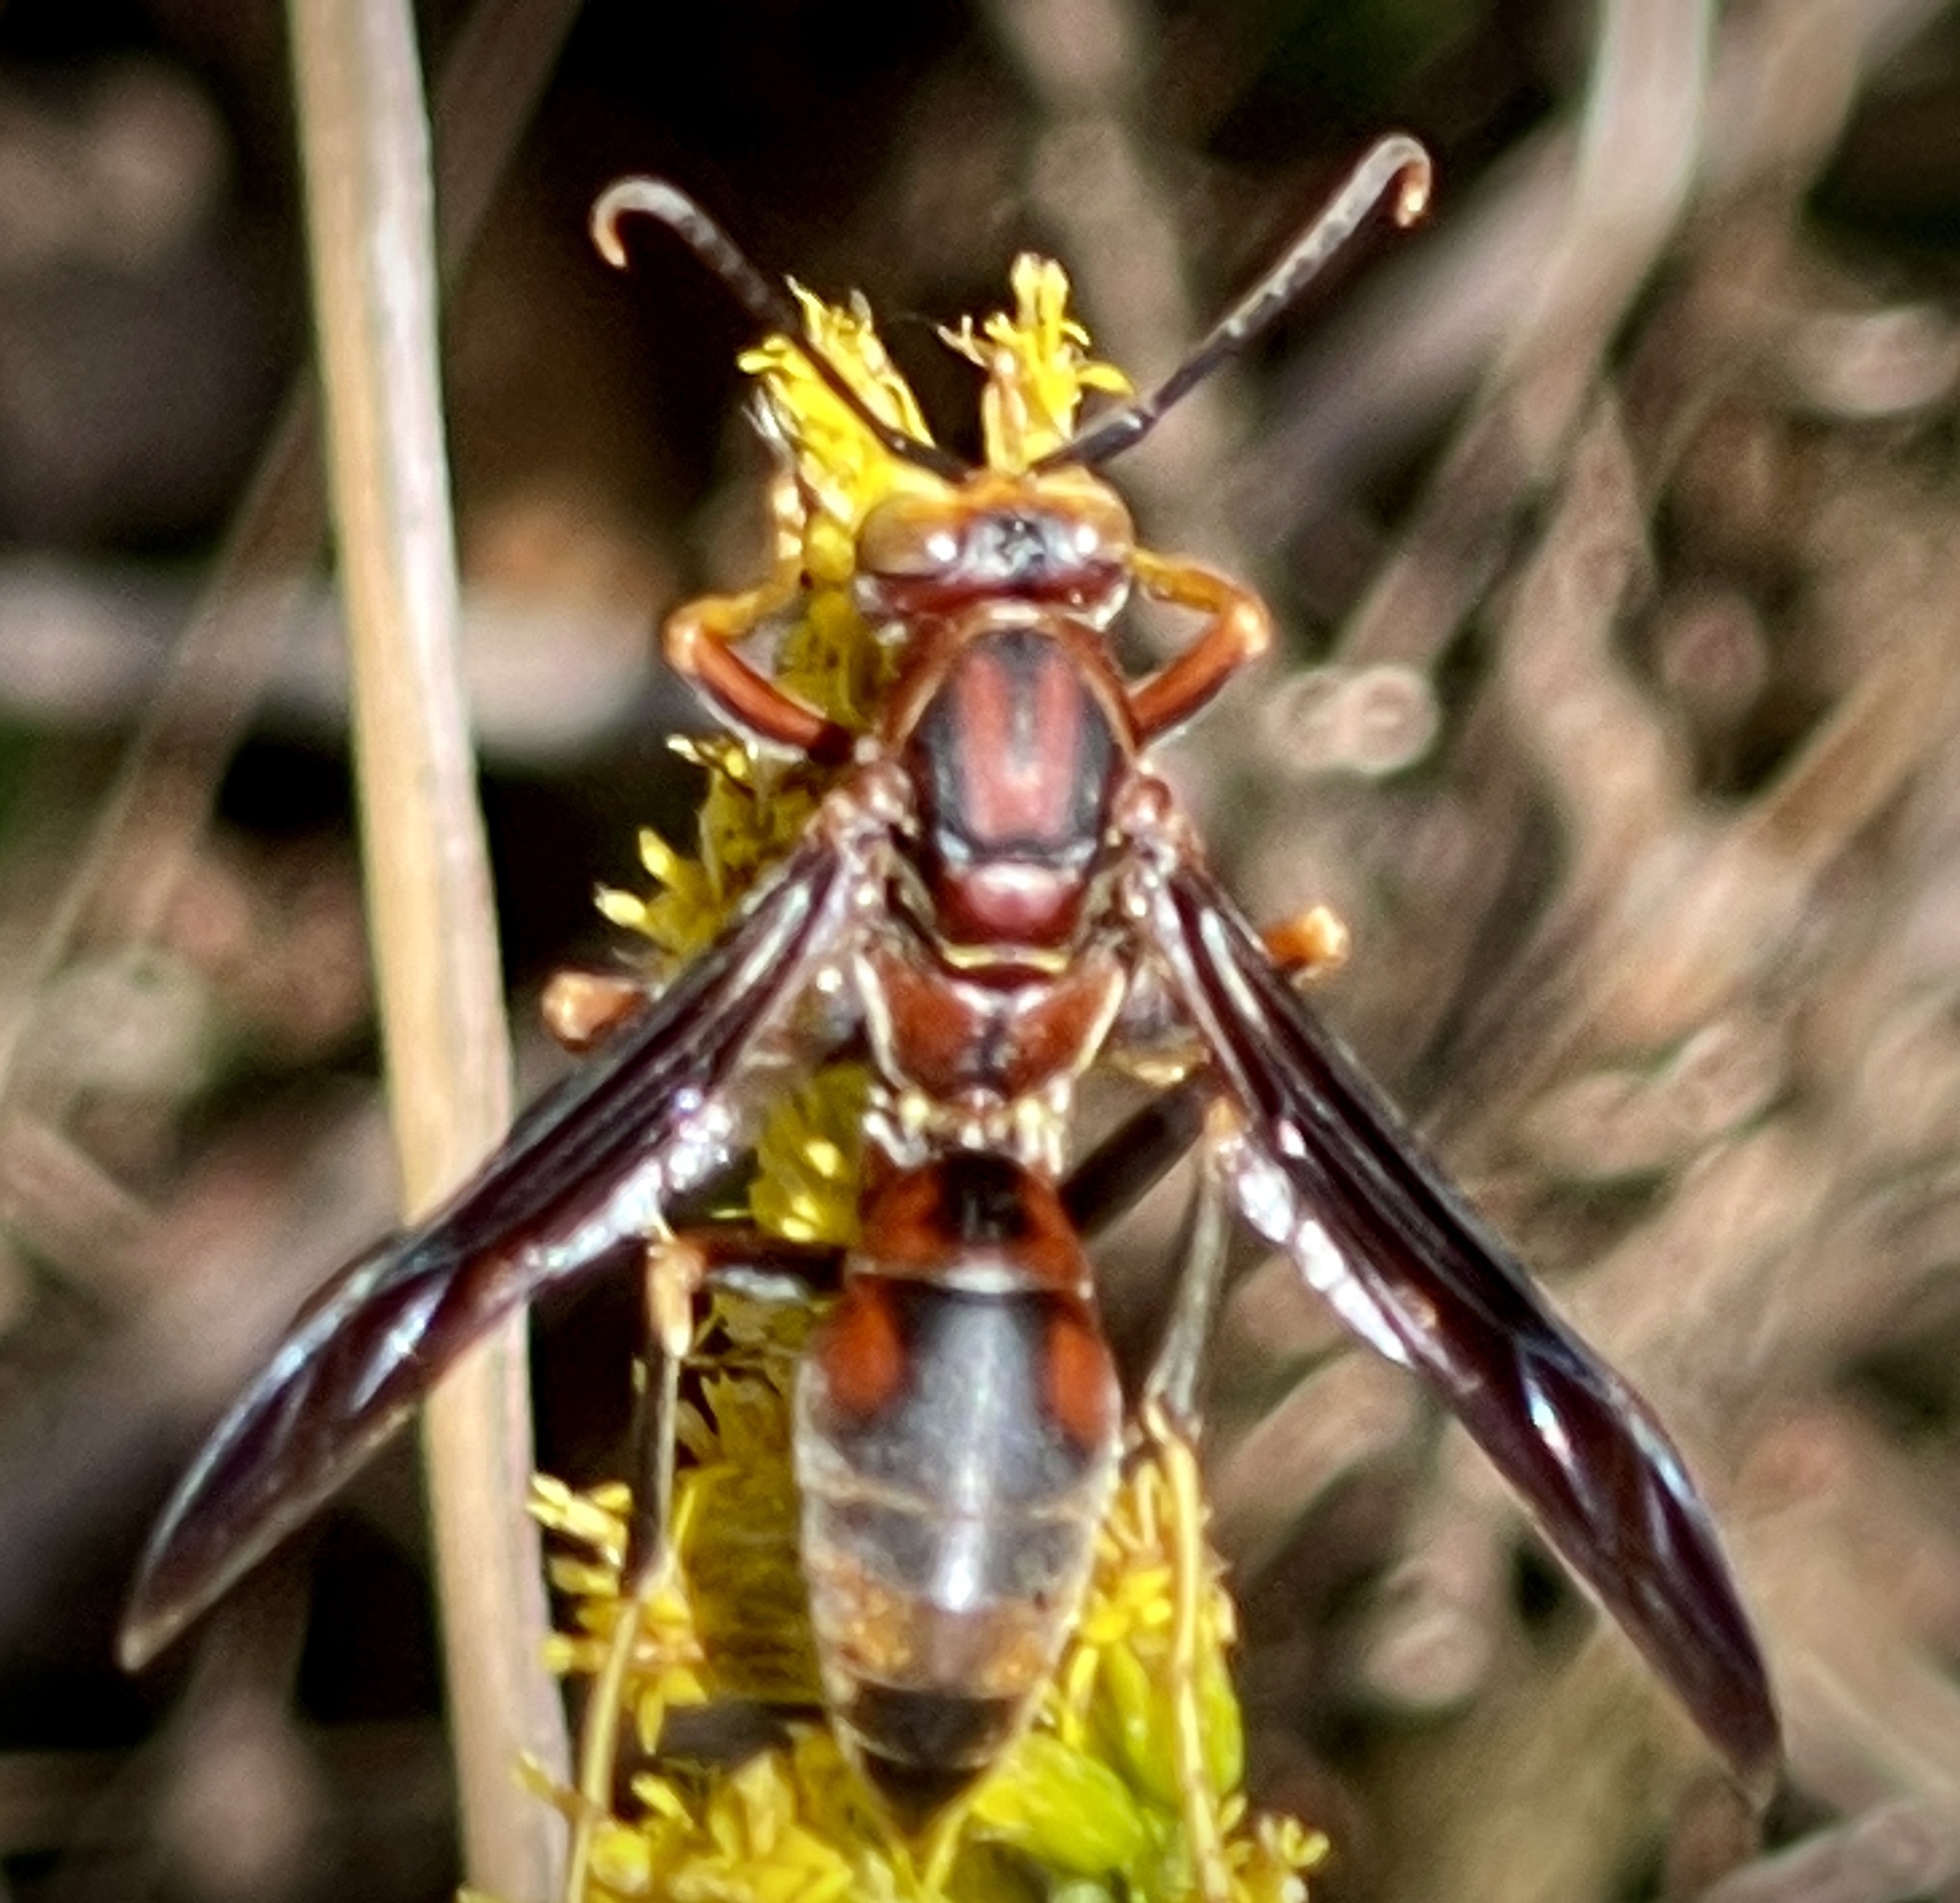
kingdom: Animalia
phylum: Arthropoda
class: Insecta
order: Hymenoptera
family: Eumenidae
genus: Polistes
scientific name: Polistes metricus
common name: Metric paper wasp
